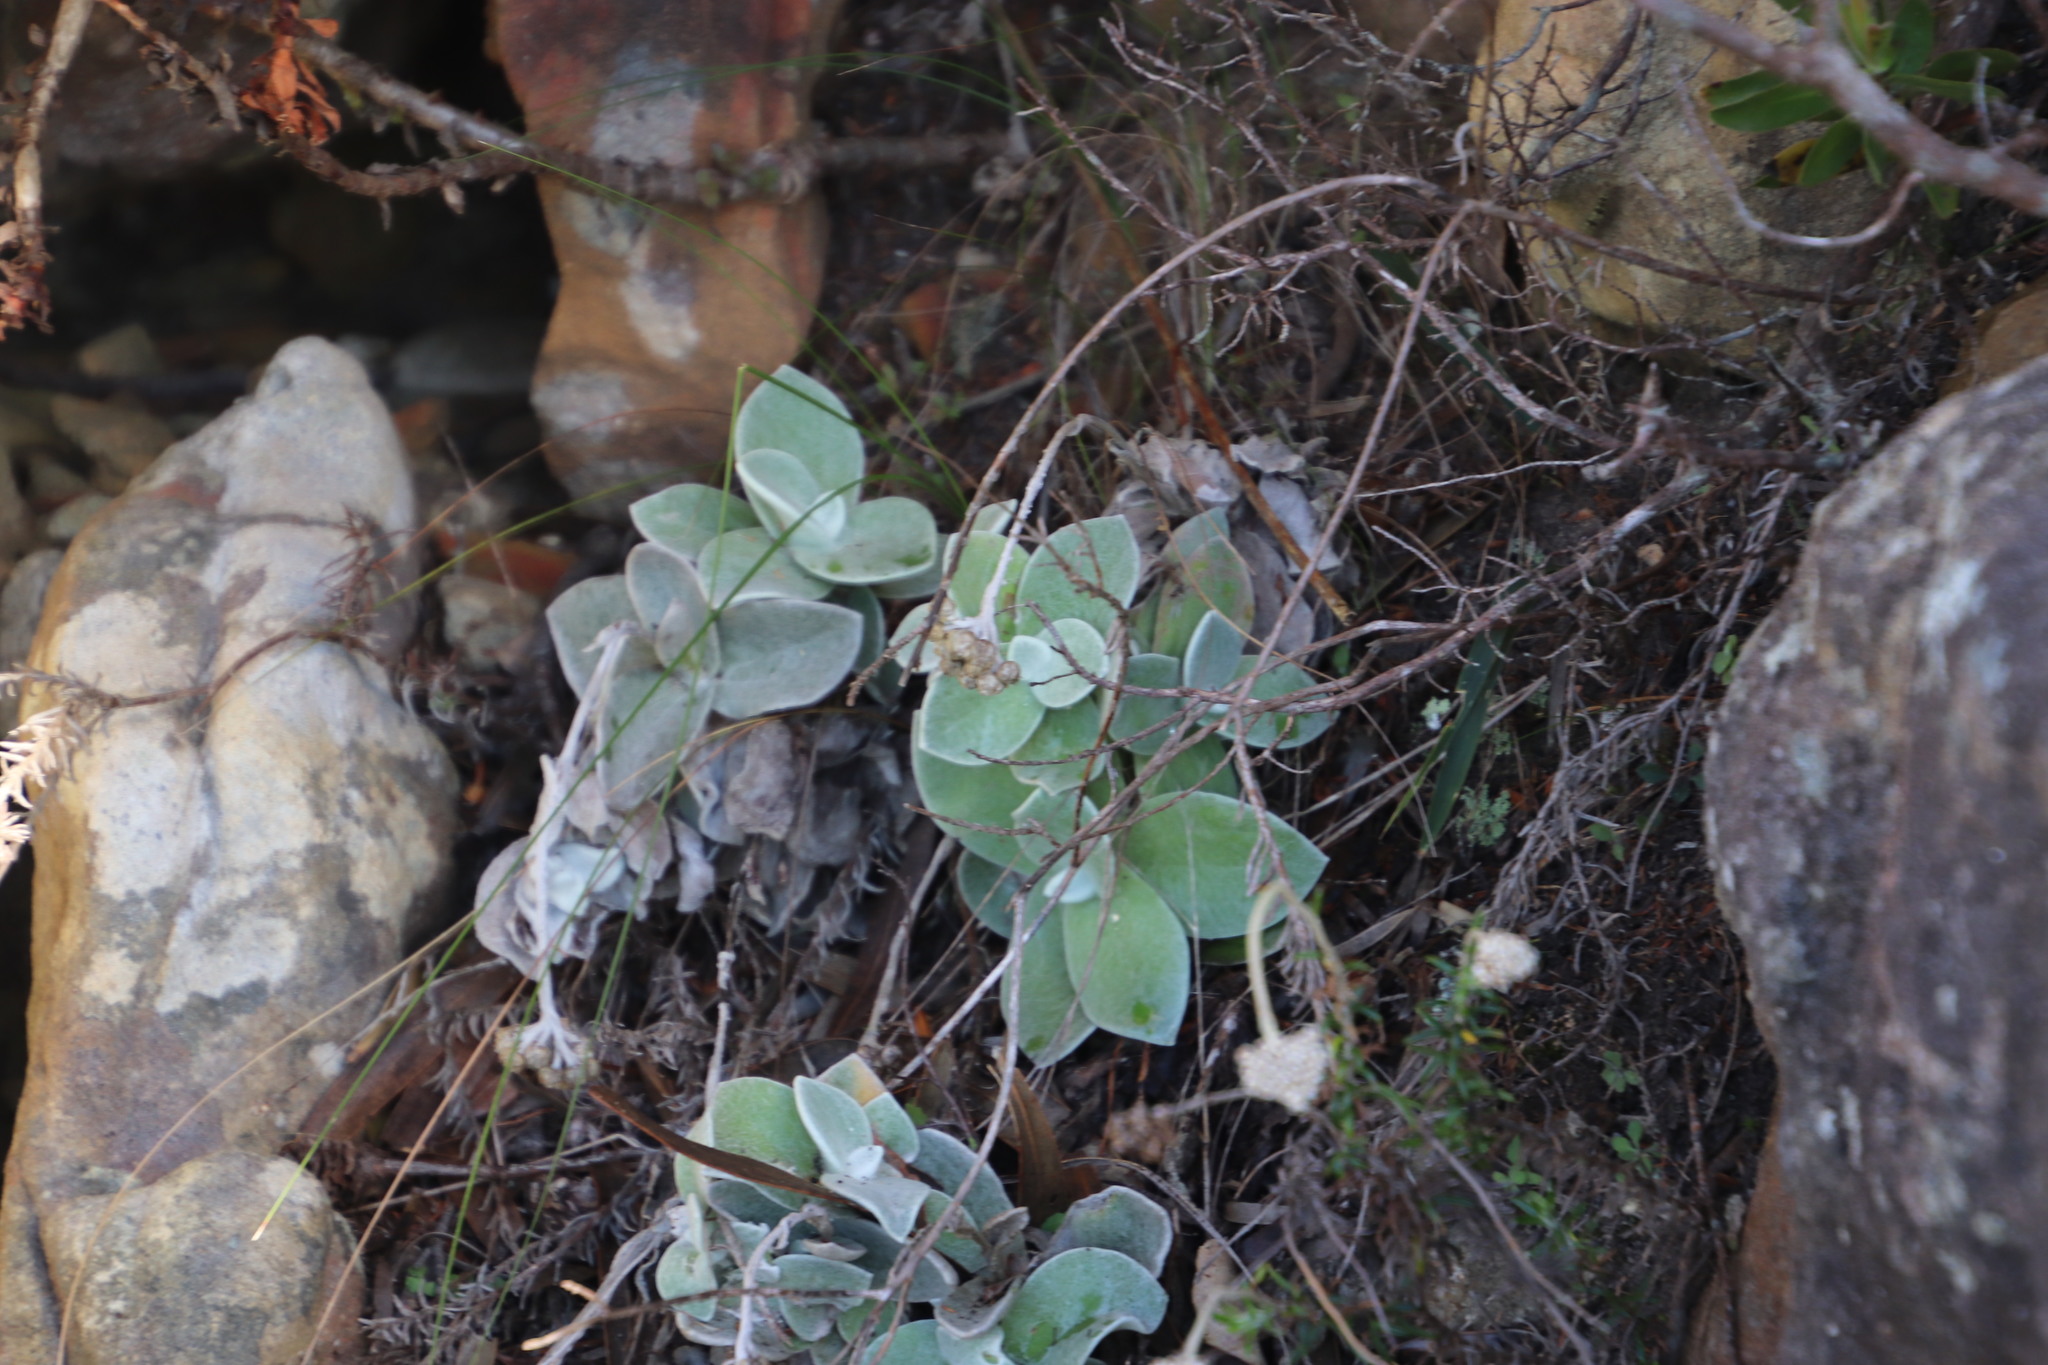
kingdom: Plantae
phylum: Tracheophyta
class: Magnoliopsida
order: Asterales
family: Asteraceae
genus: Helichrysum
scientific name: Helichrysum grandiflorum
